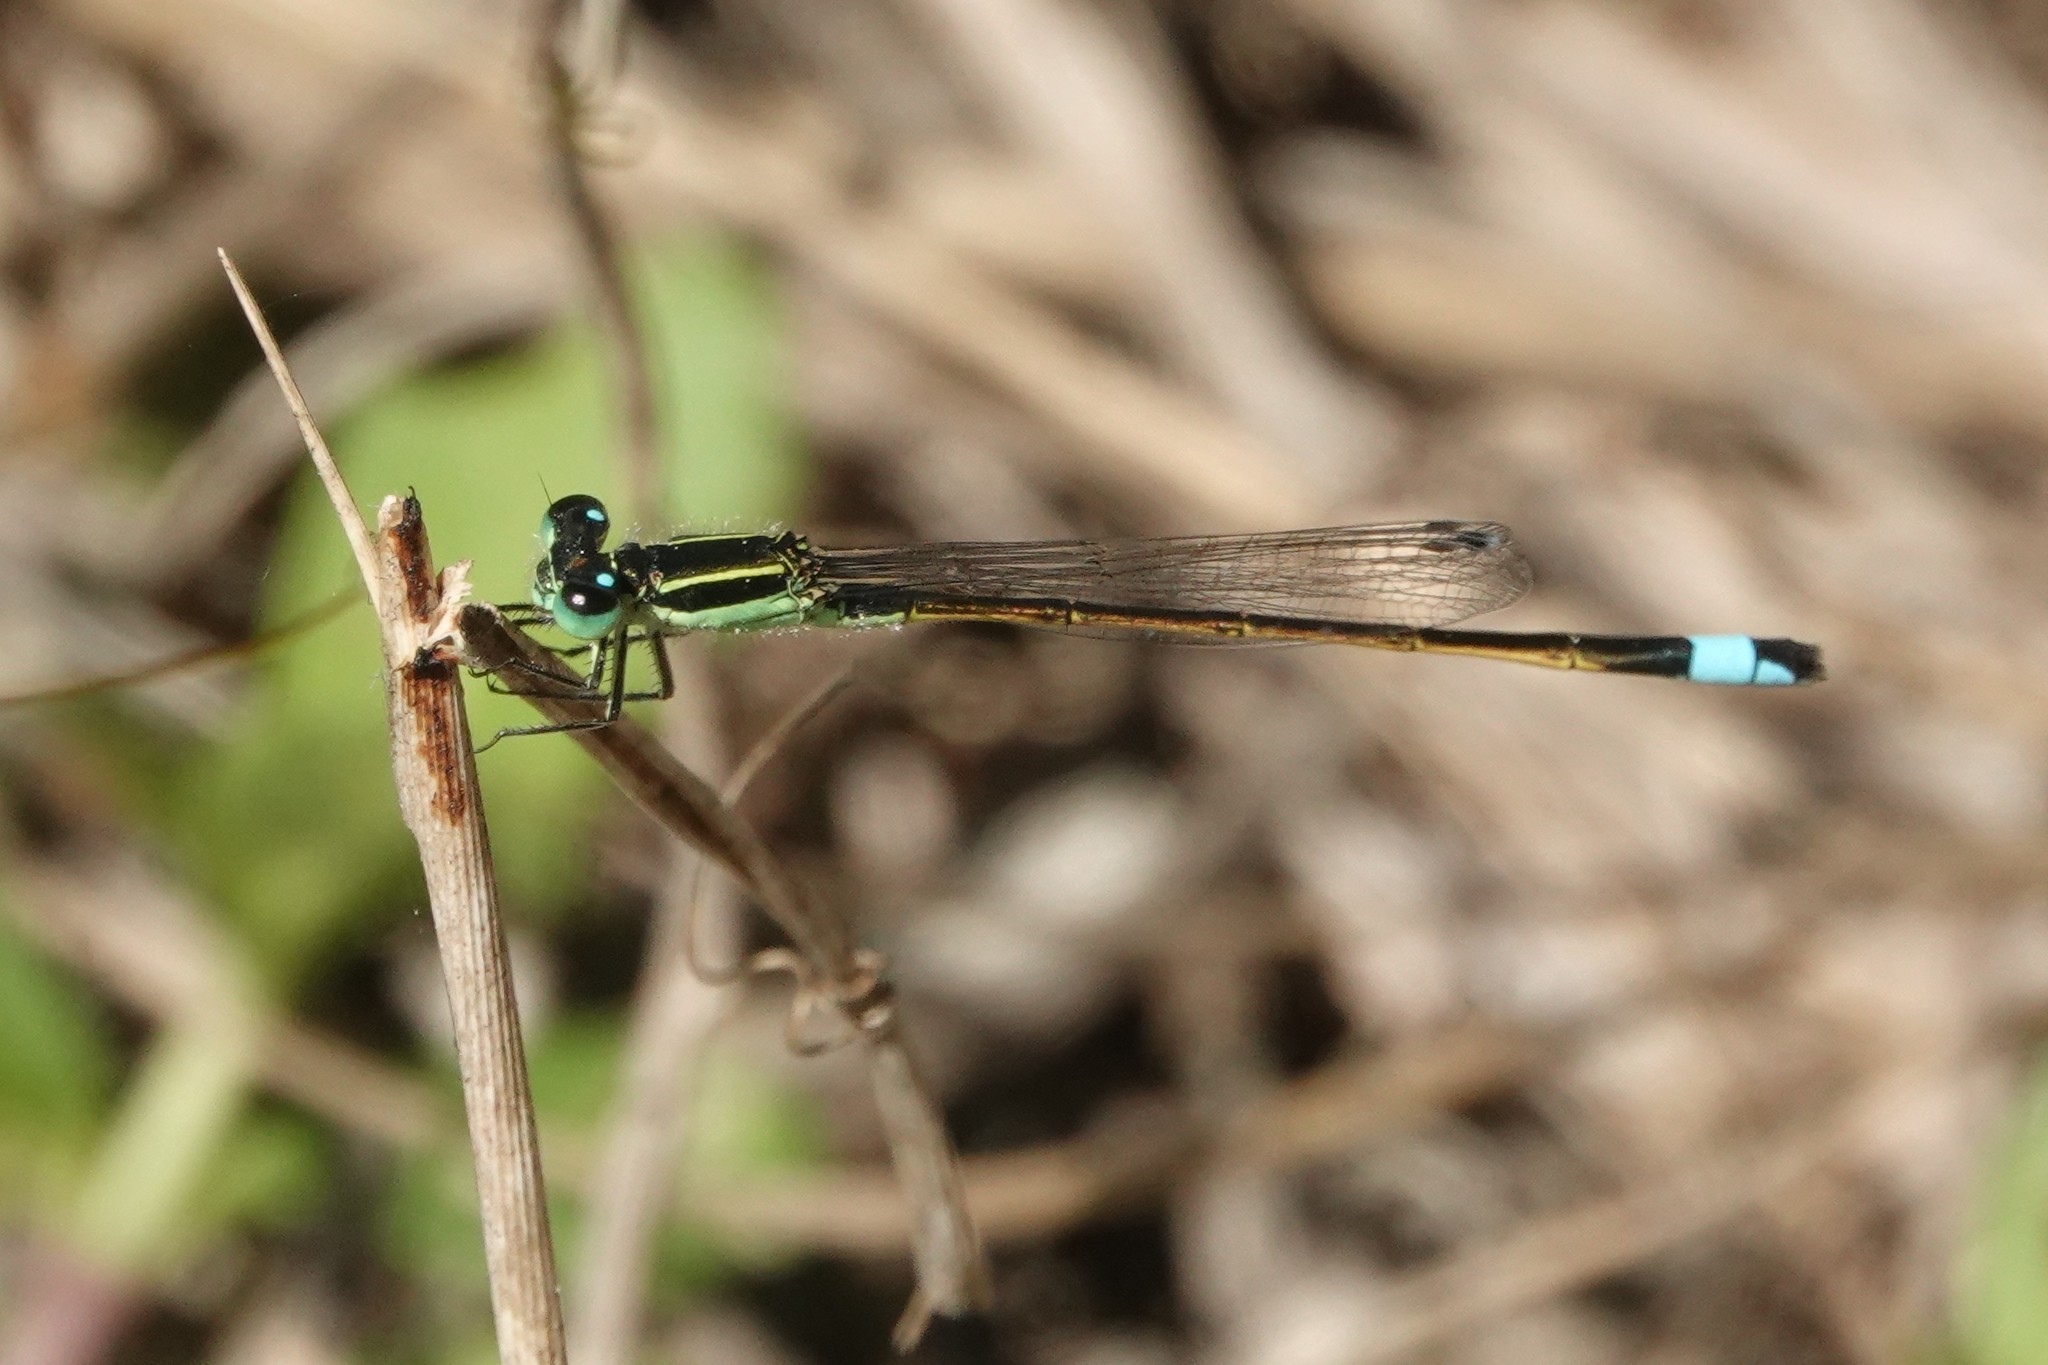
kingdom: Animalia
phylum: Arthropoda
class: Insecta
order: Odonata
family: Coenagrionidae
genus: Ischnura
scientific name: Ischnura ramburii
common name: Rambur's forktail
